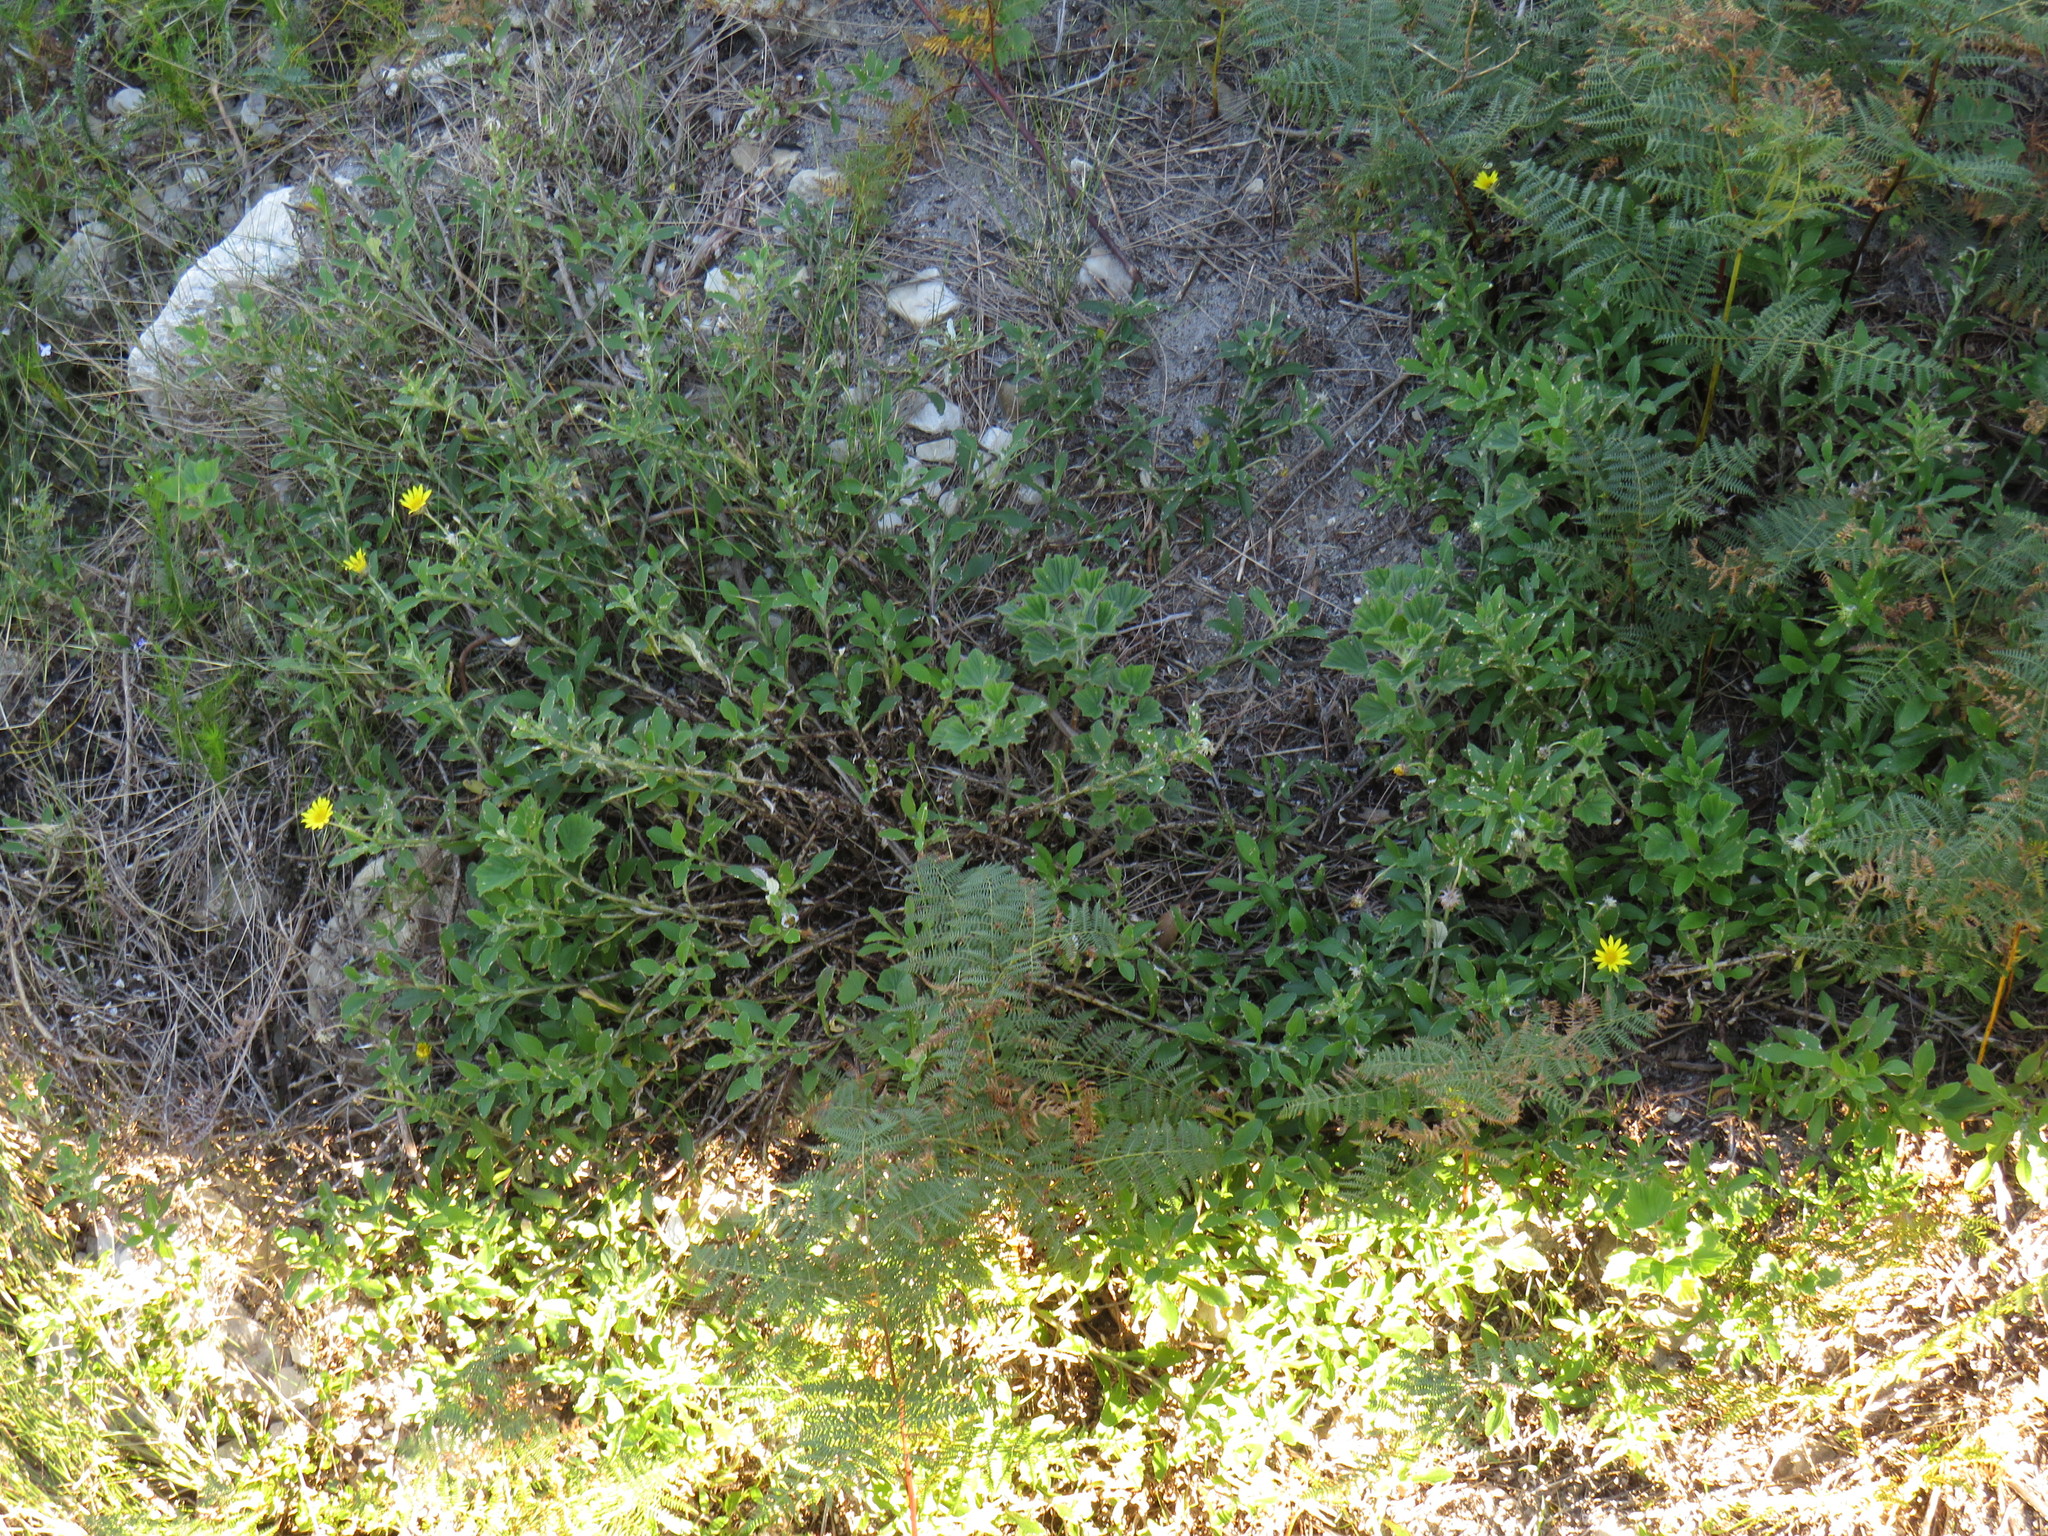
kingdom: Plantae
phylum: Tracheophyta
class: Magnoliopsida
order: Asterales
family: Asteraceae
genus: Arctotis
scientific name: Arctotis scabra
